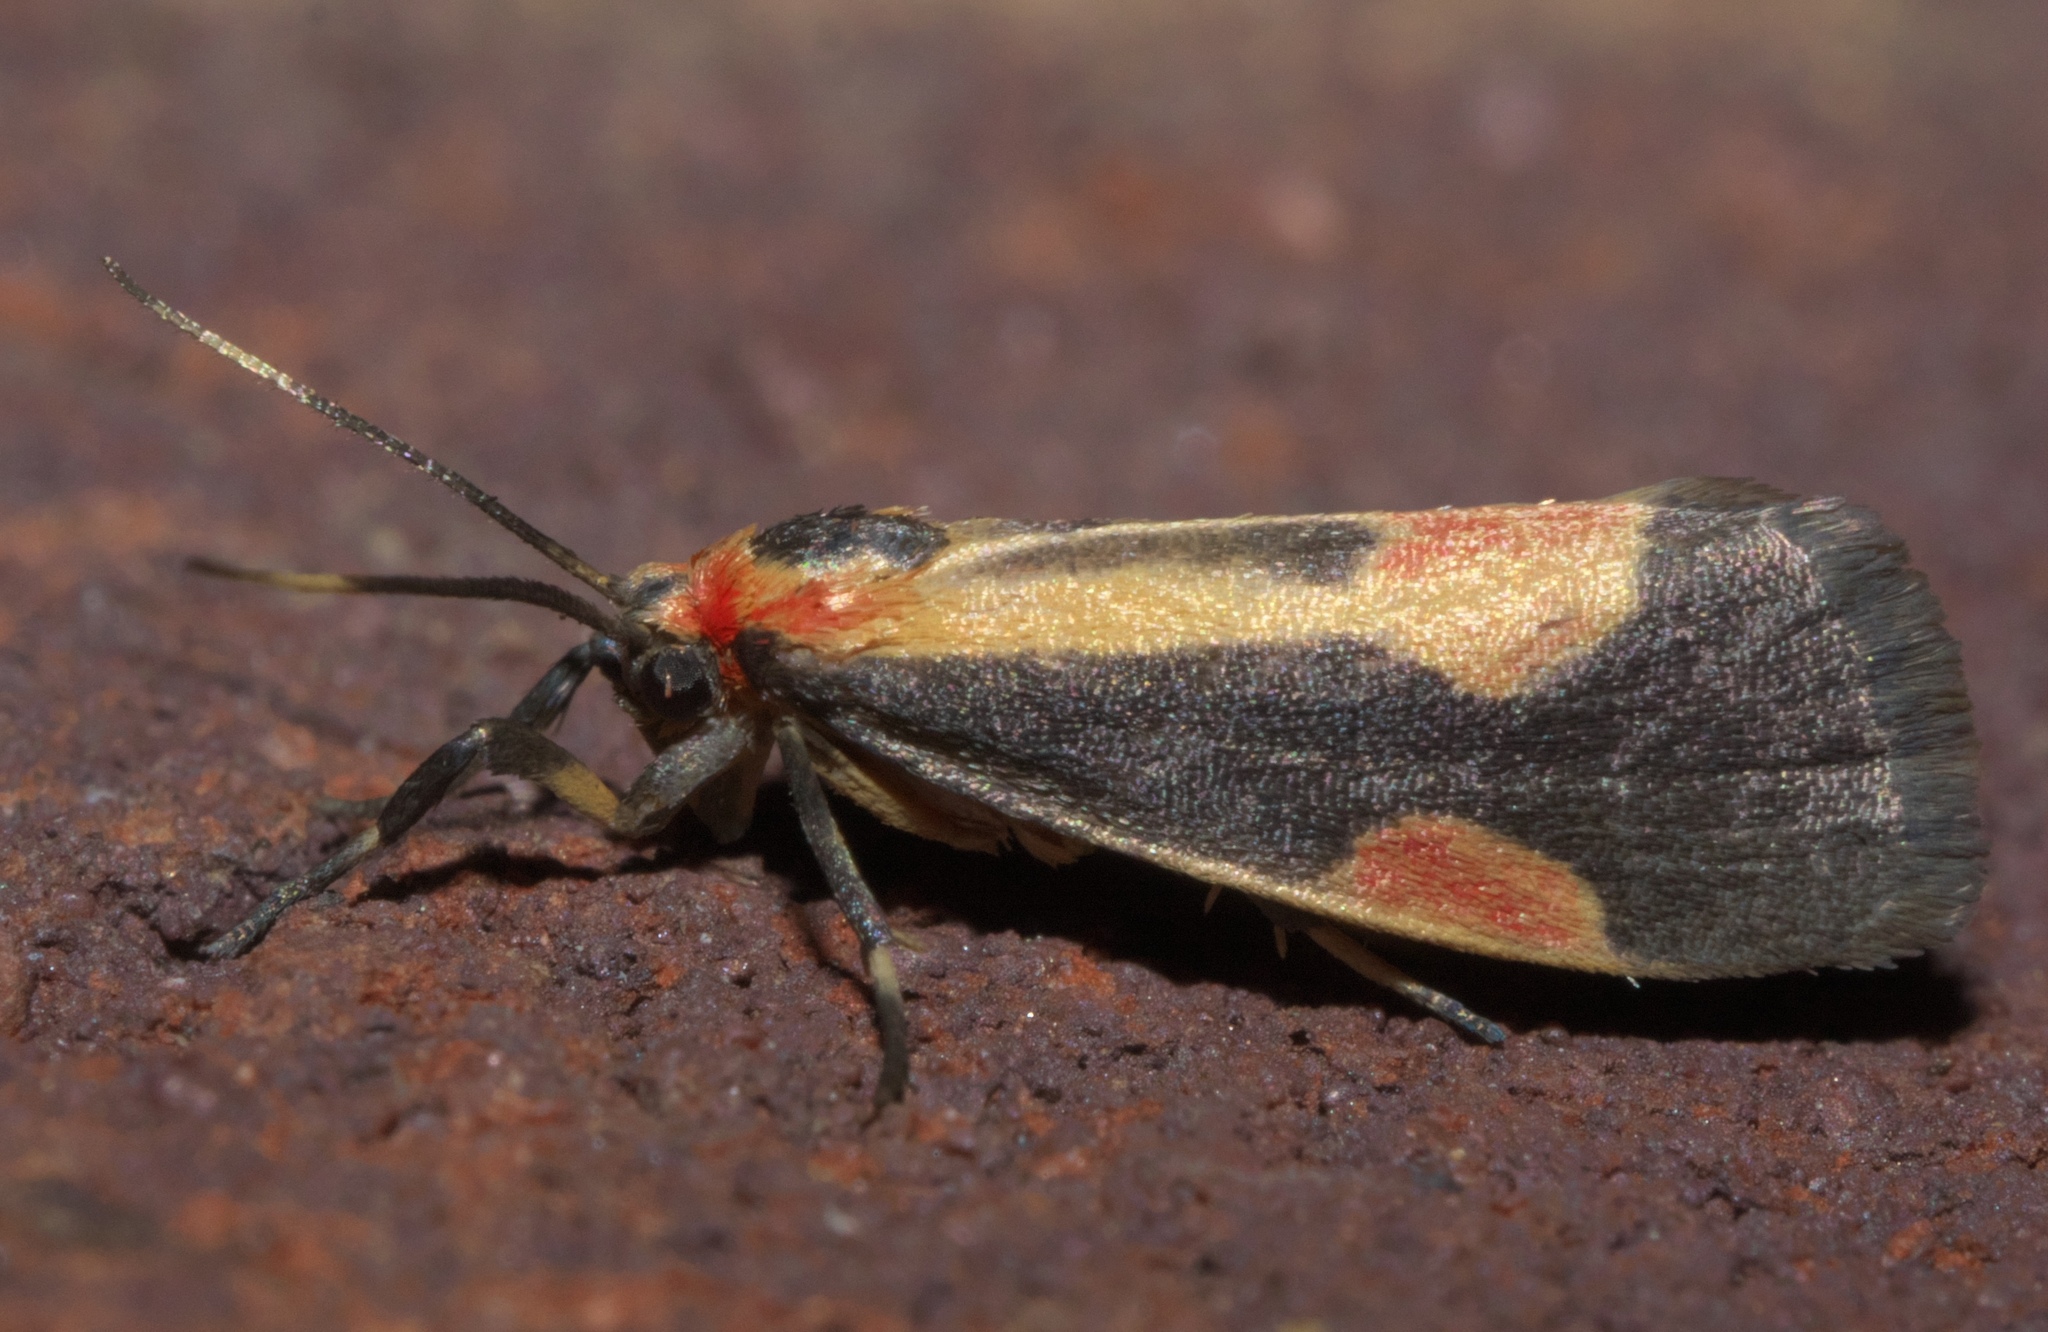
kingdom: Animalia
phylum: Arthropoda
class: Insecta
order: Lepidoptera
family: Erebidae
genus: Cisthene
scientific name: Cisthene packardii
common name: Packard's lichen moth
